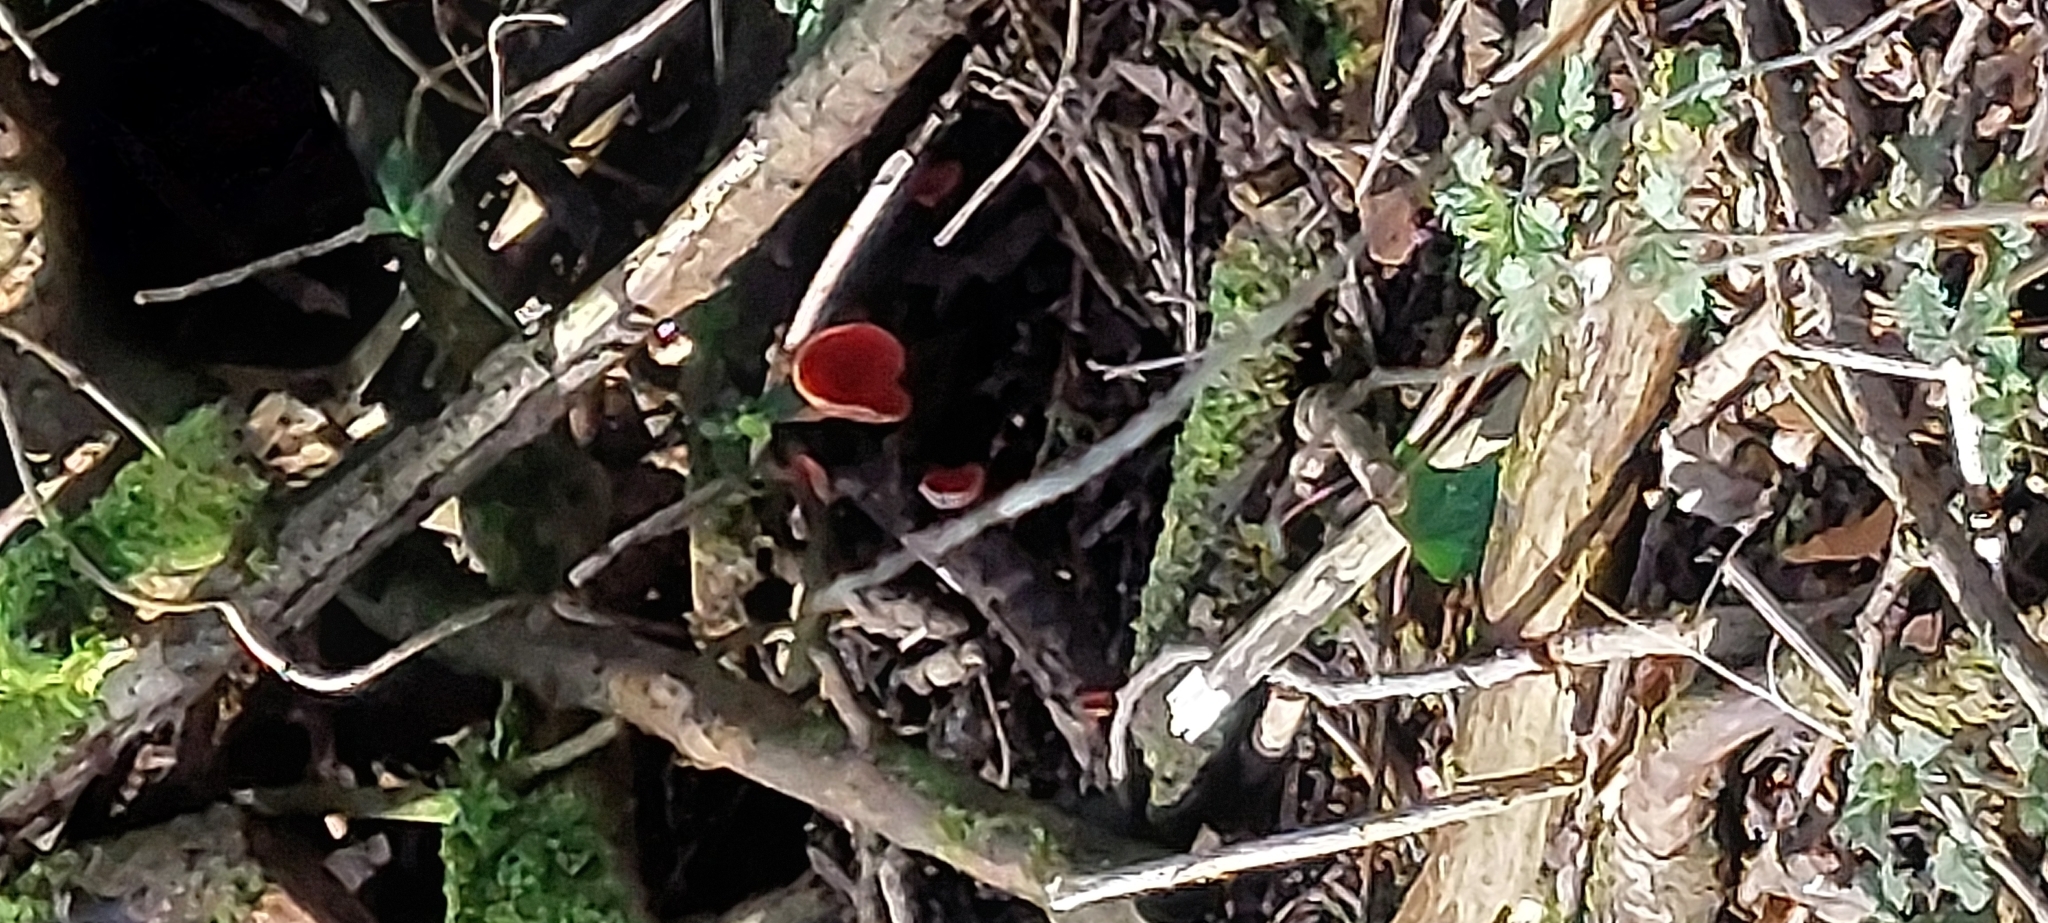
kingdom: Fungi
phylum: Ascomycota
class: Pezizomycetes
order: Pezizales
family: Sarcoscyphaceae
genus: Sarcoscypha
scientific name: Sarcoscypha
